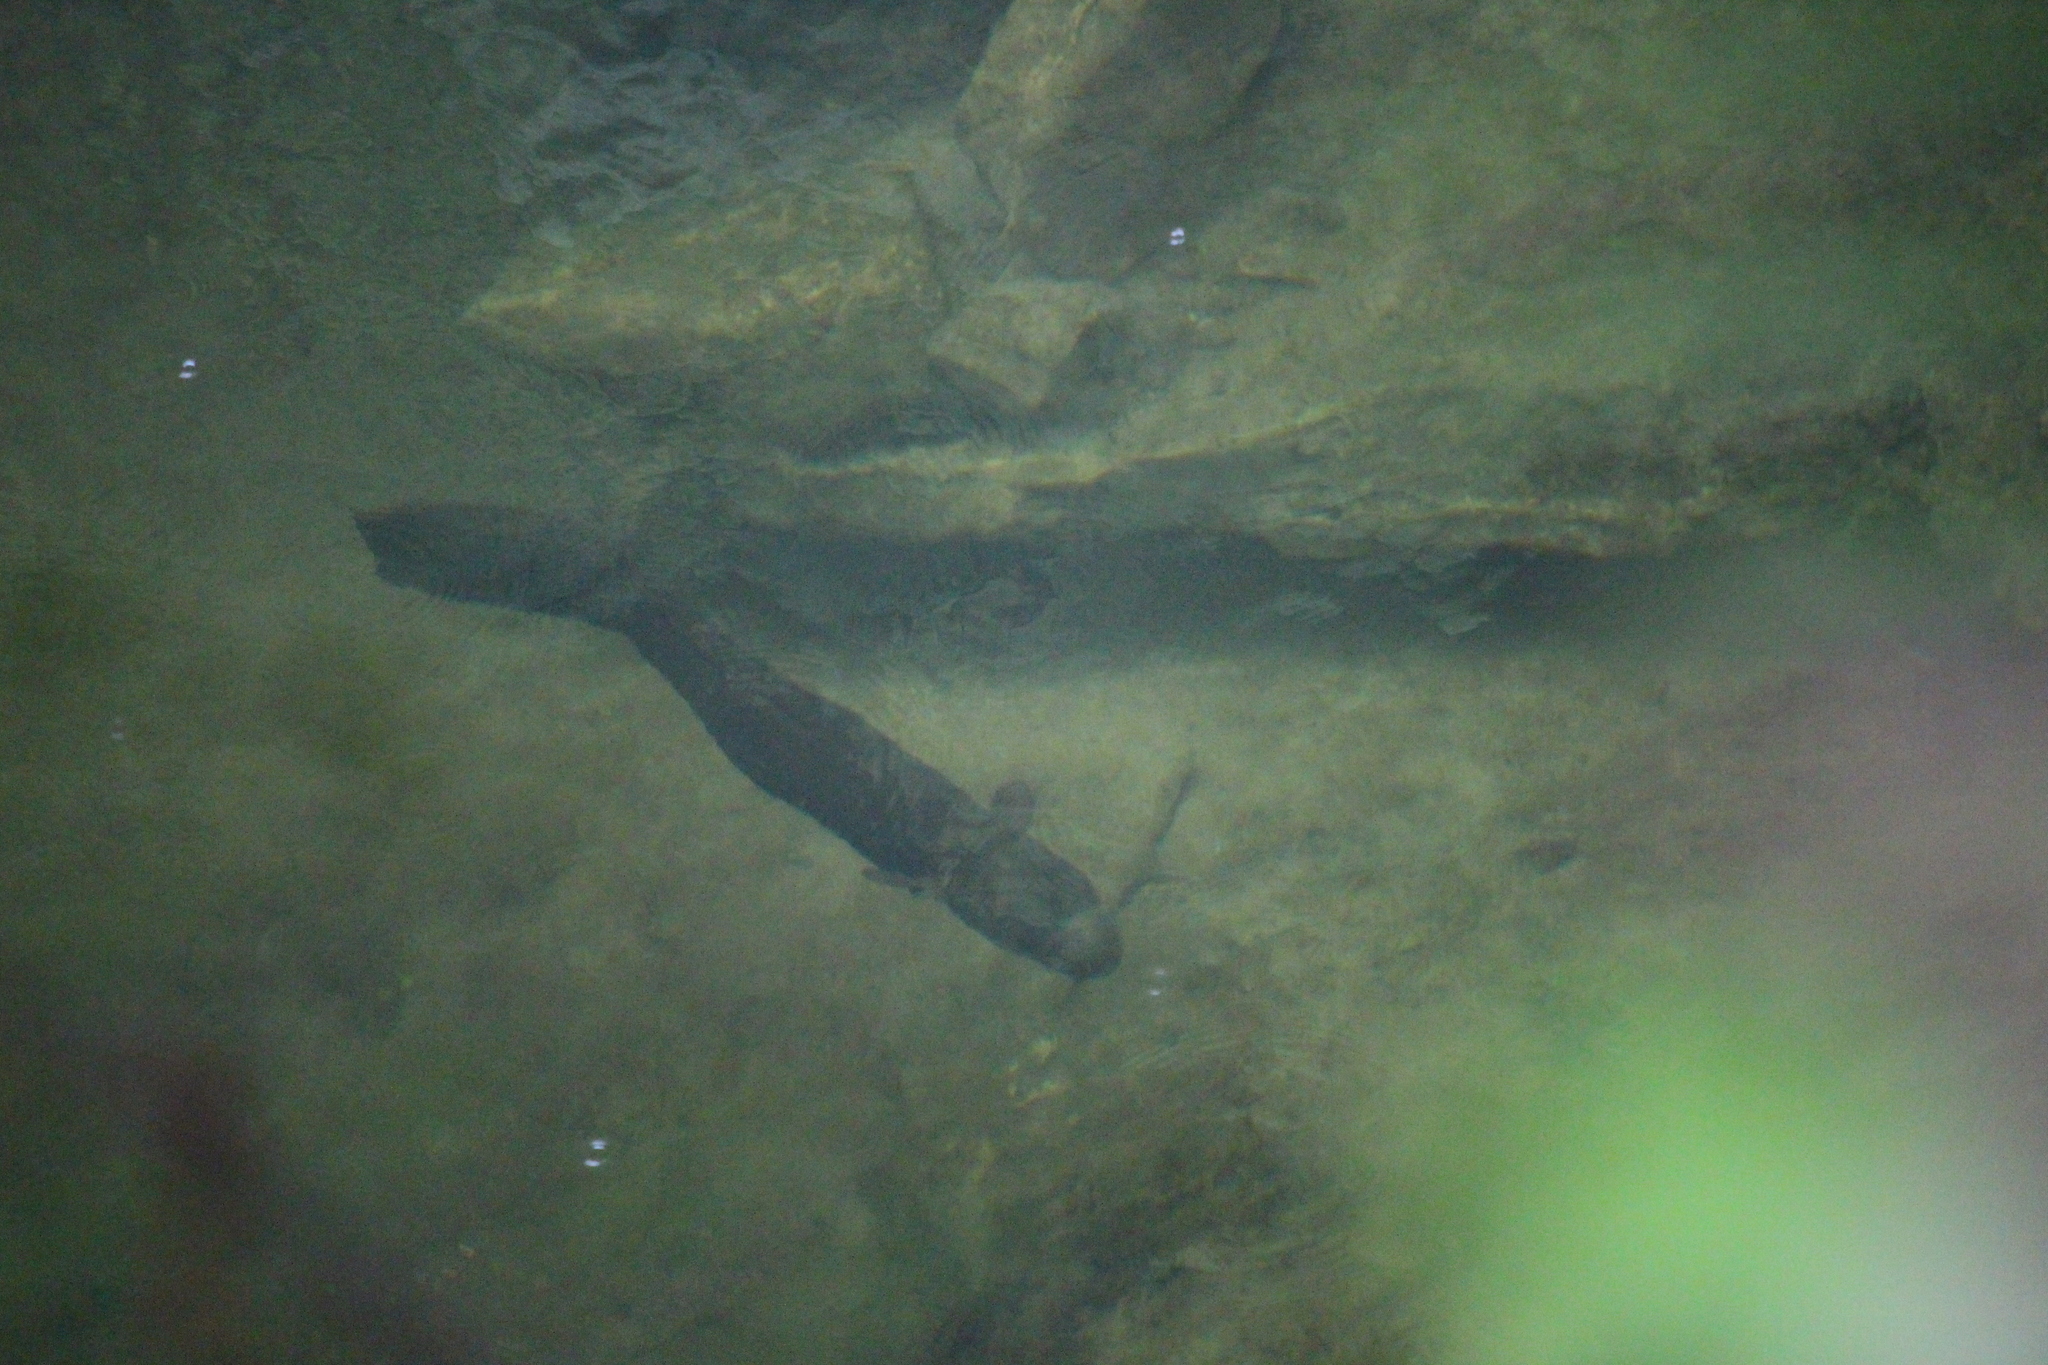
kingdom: Animalia
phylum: Chordata
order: Anguilliformes
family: Anguillidae
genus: Anguilla
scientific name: Anguilla dieffenbachii
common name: New zealand longfin eel
